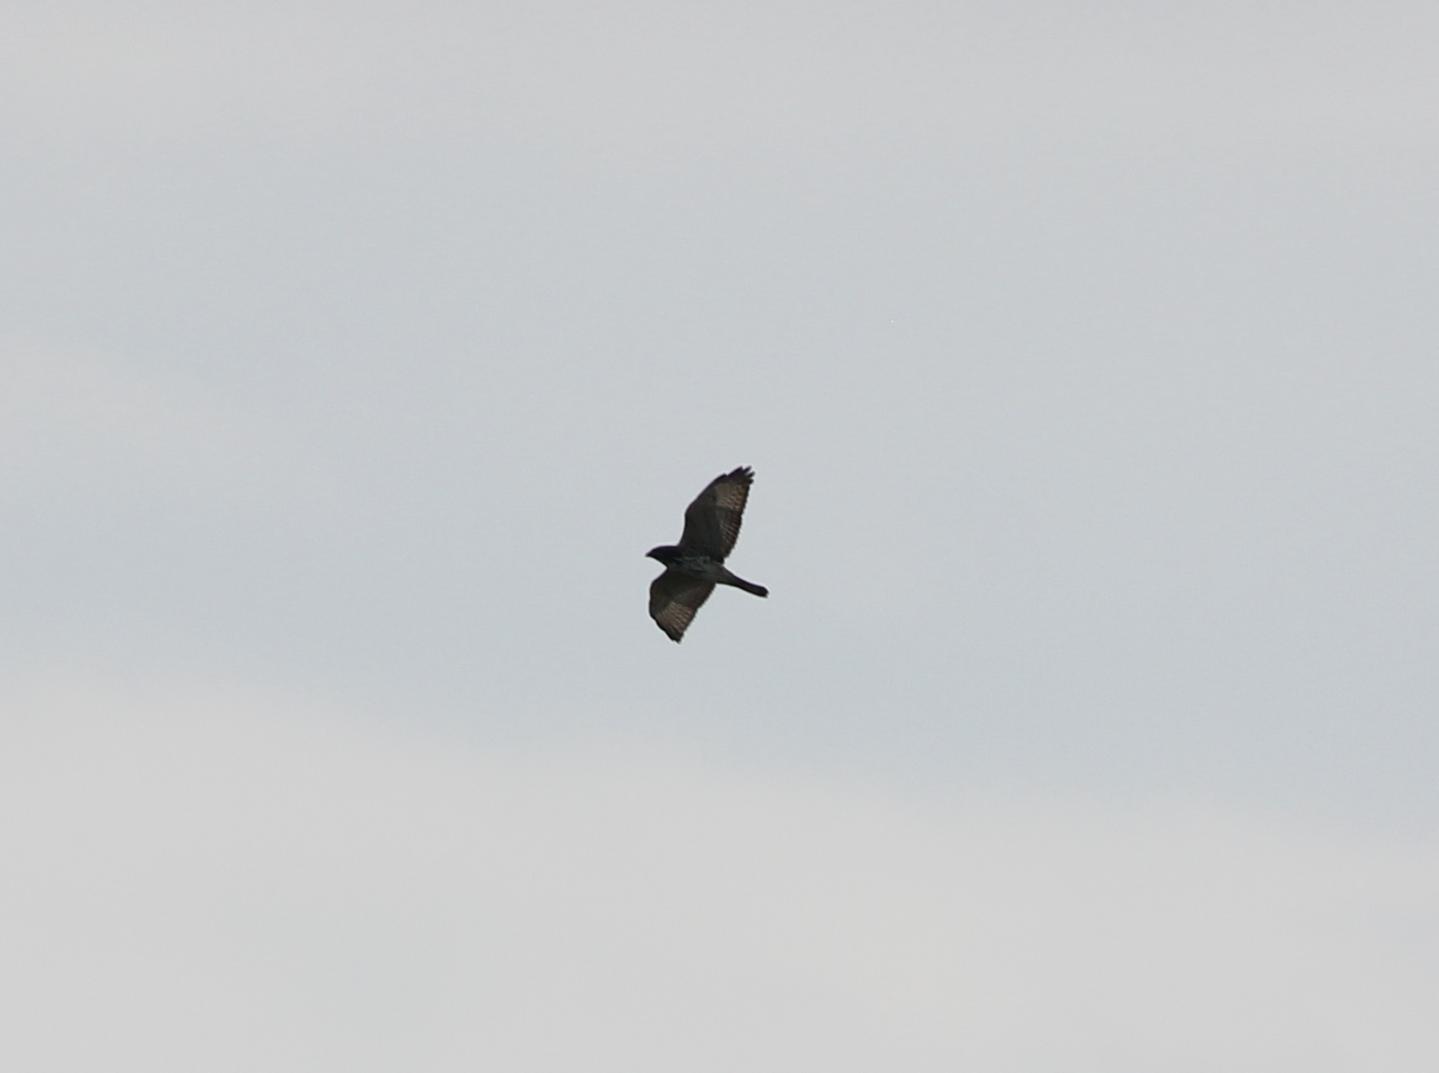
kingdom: Animalia
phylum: Chordata
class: Aves
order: Accipitriformes
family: Accipitridae
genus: Buteo
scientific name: Buteo platypterus
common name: Broad-winged hawk
